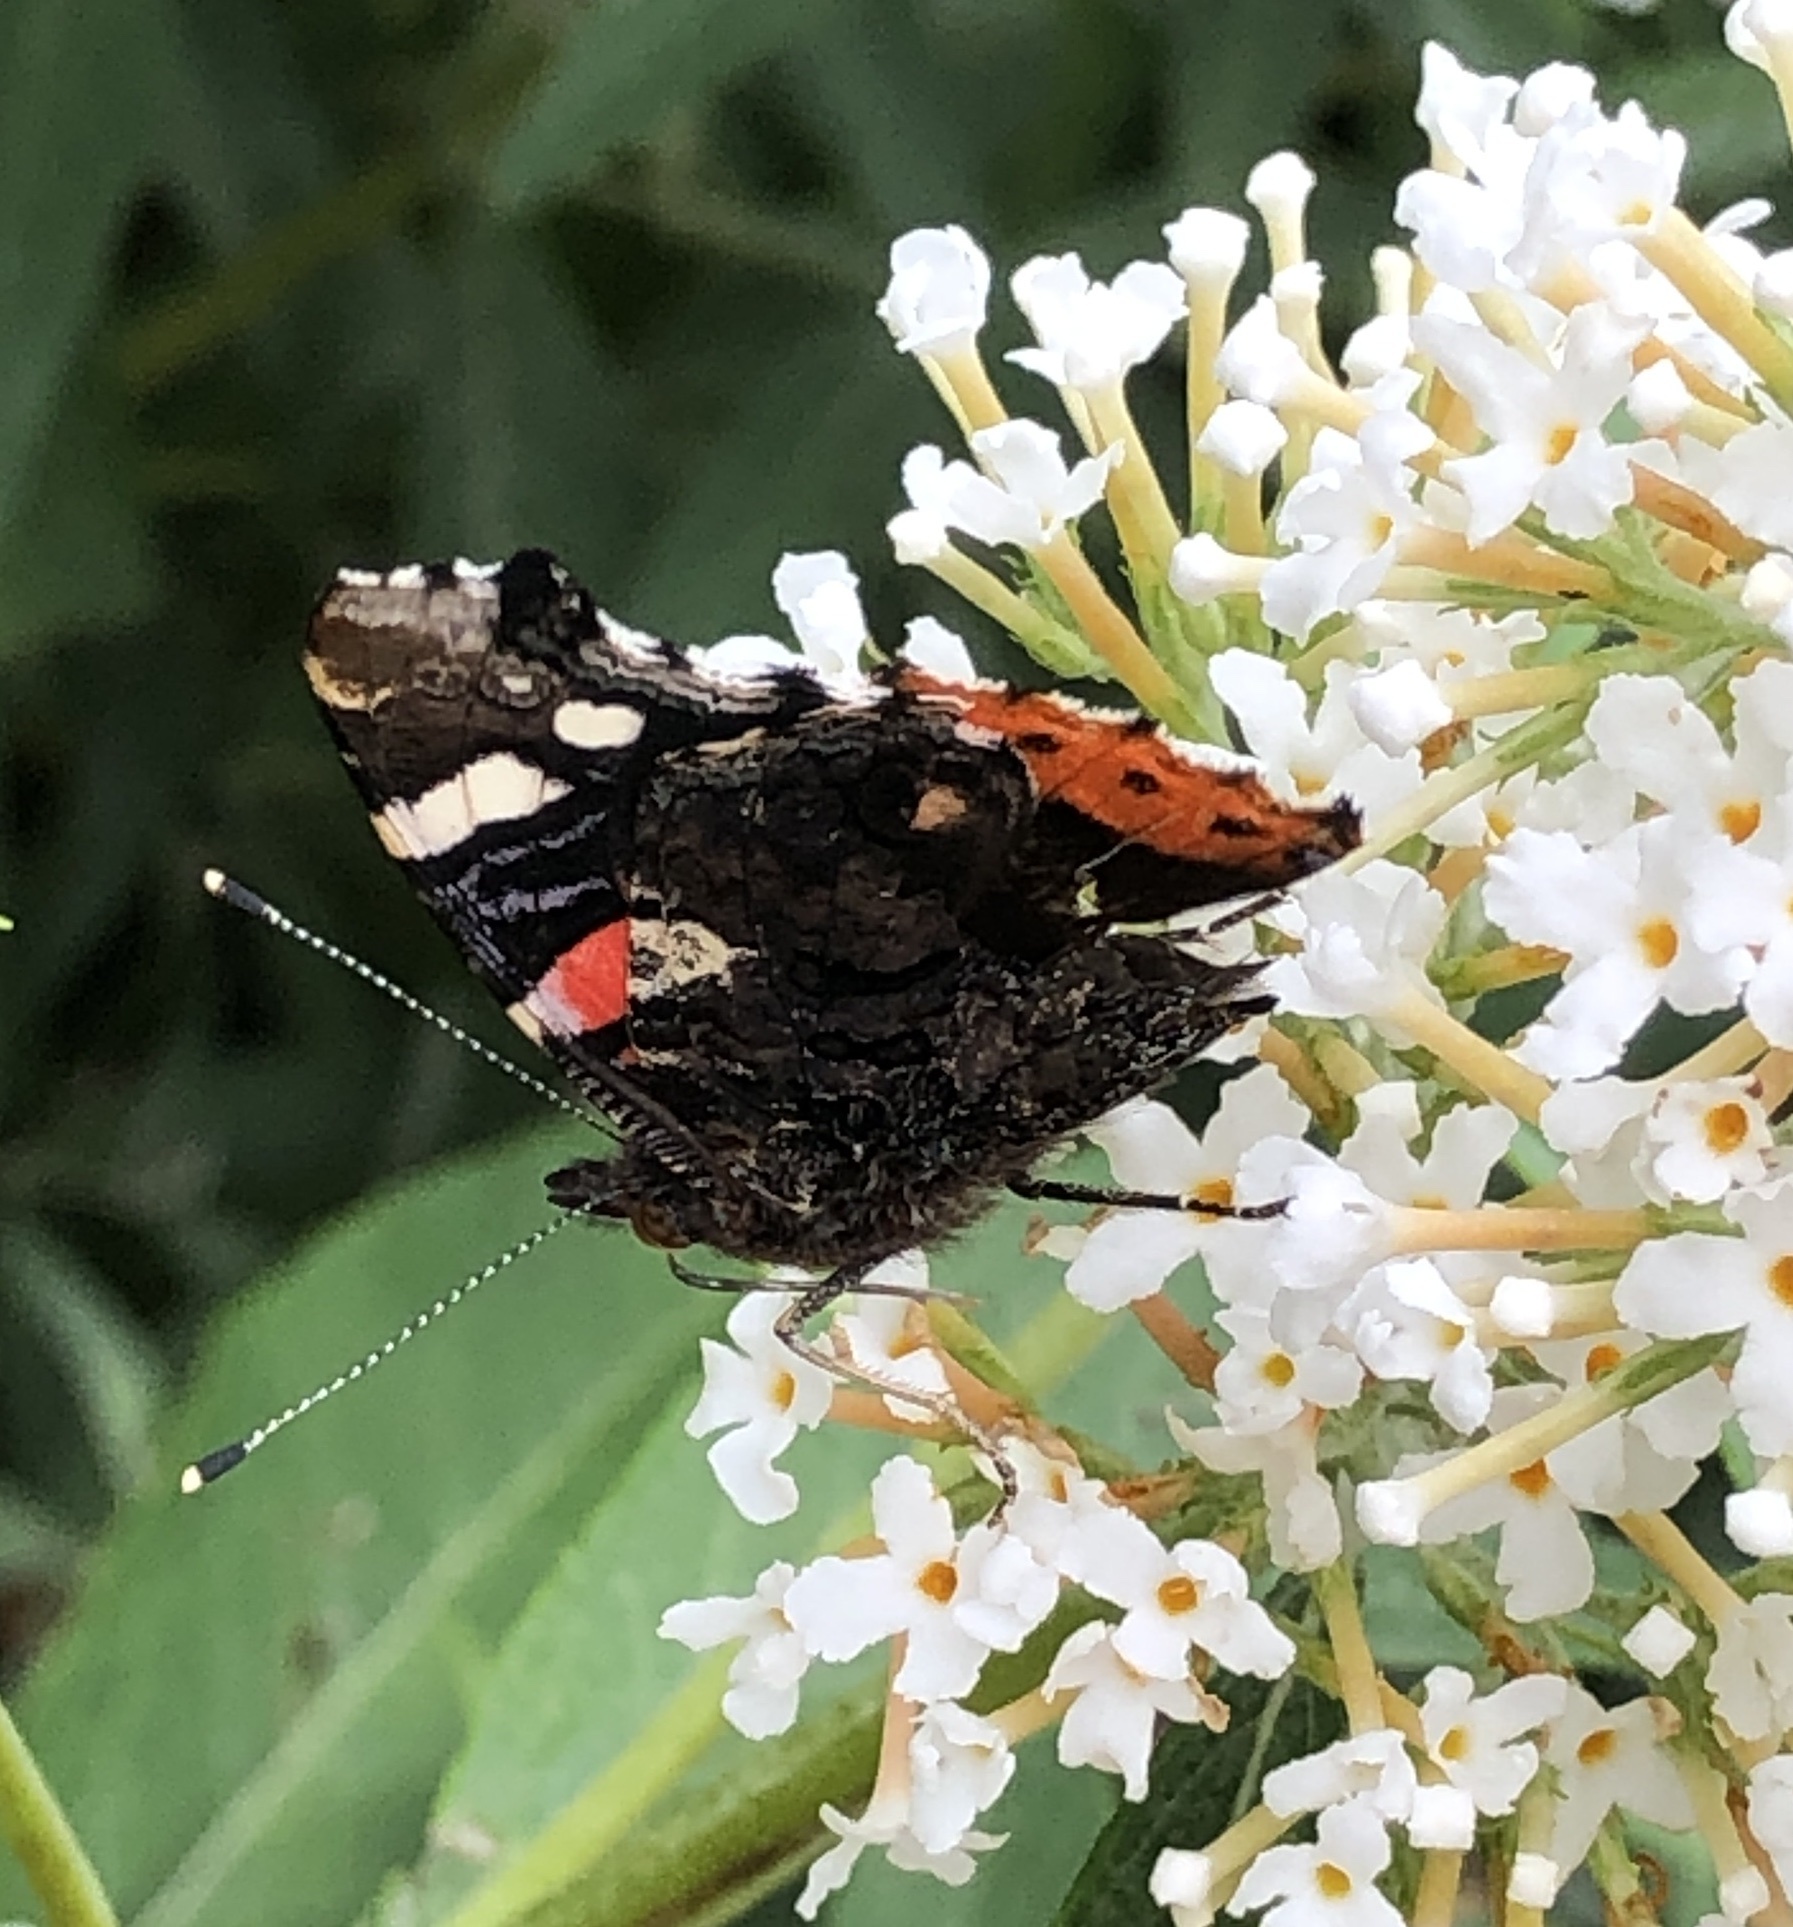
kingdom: Animalia
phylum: Arthropoda
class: Insecta
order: Lepidoptera
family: Nymphalidae
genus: Vanessa
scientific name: Vanessa atalanta
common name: Red admiral
